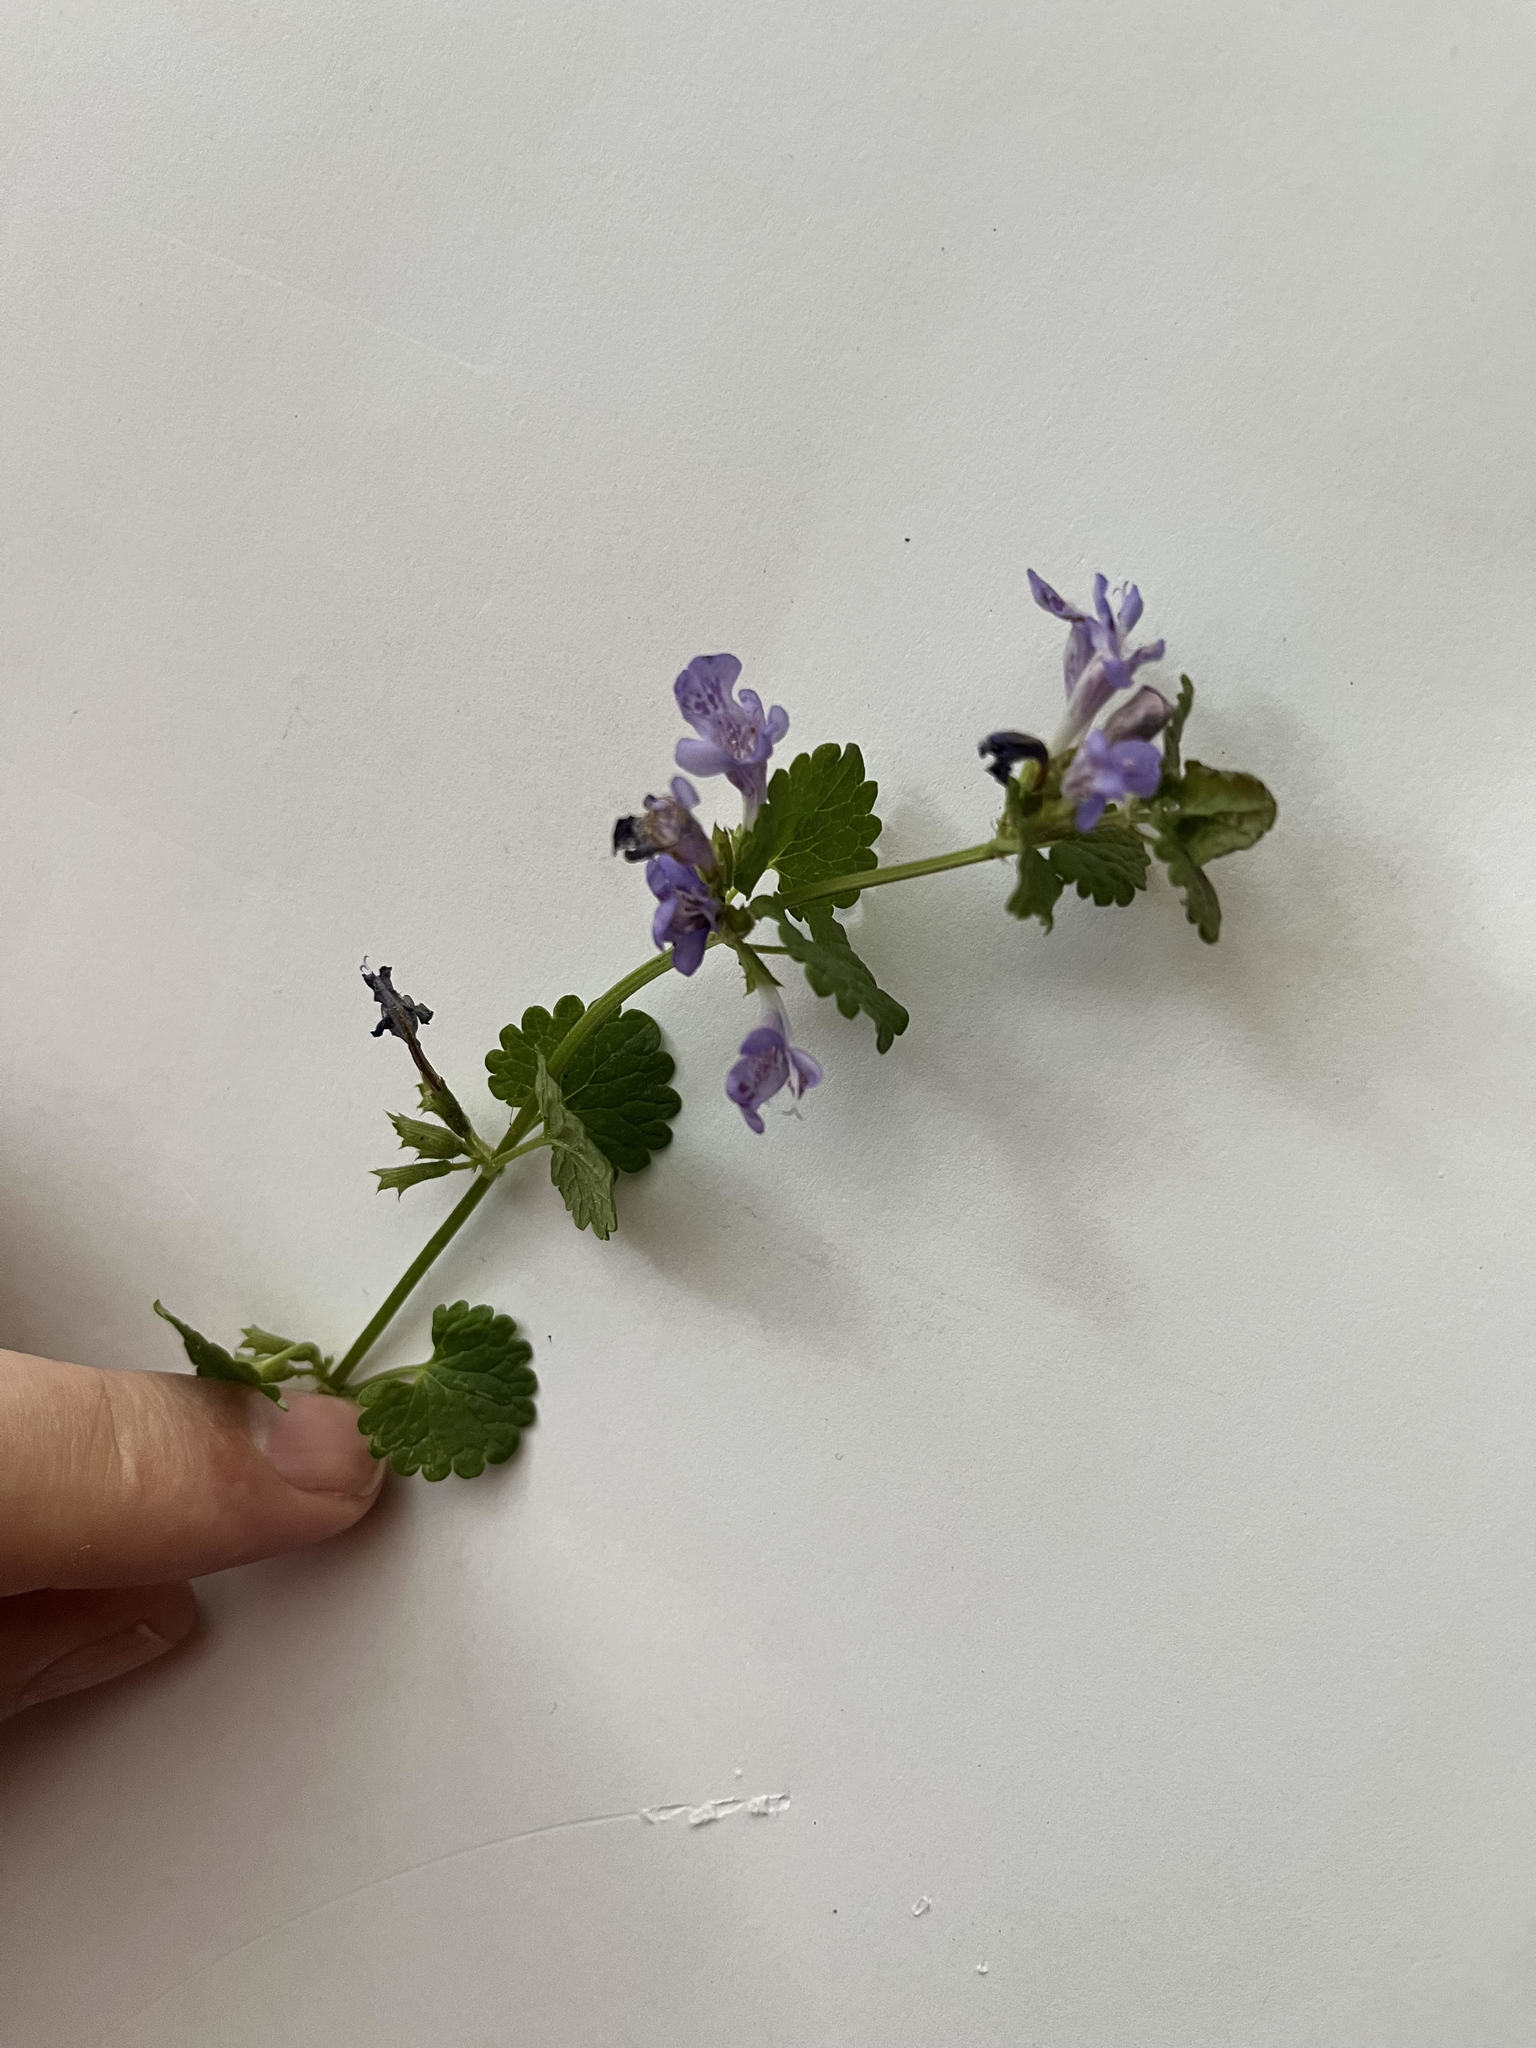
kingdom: Plantae
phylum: Tracheophyta
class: Magnoliopsida
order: Lamiales
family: Lamiaceae
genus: Glechoma
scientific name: Glechoma hederacea
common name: Ground ivy
